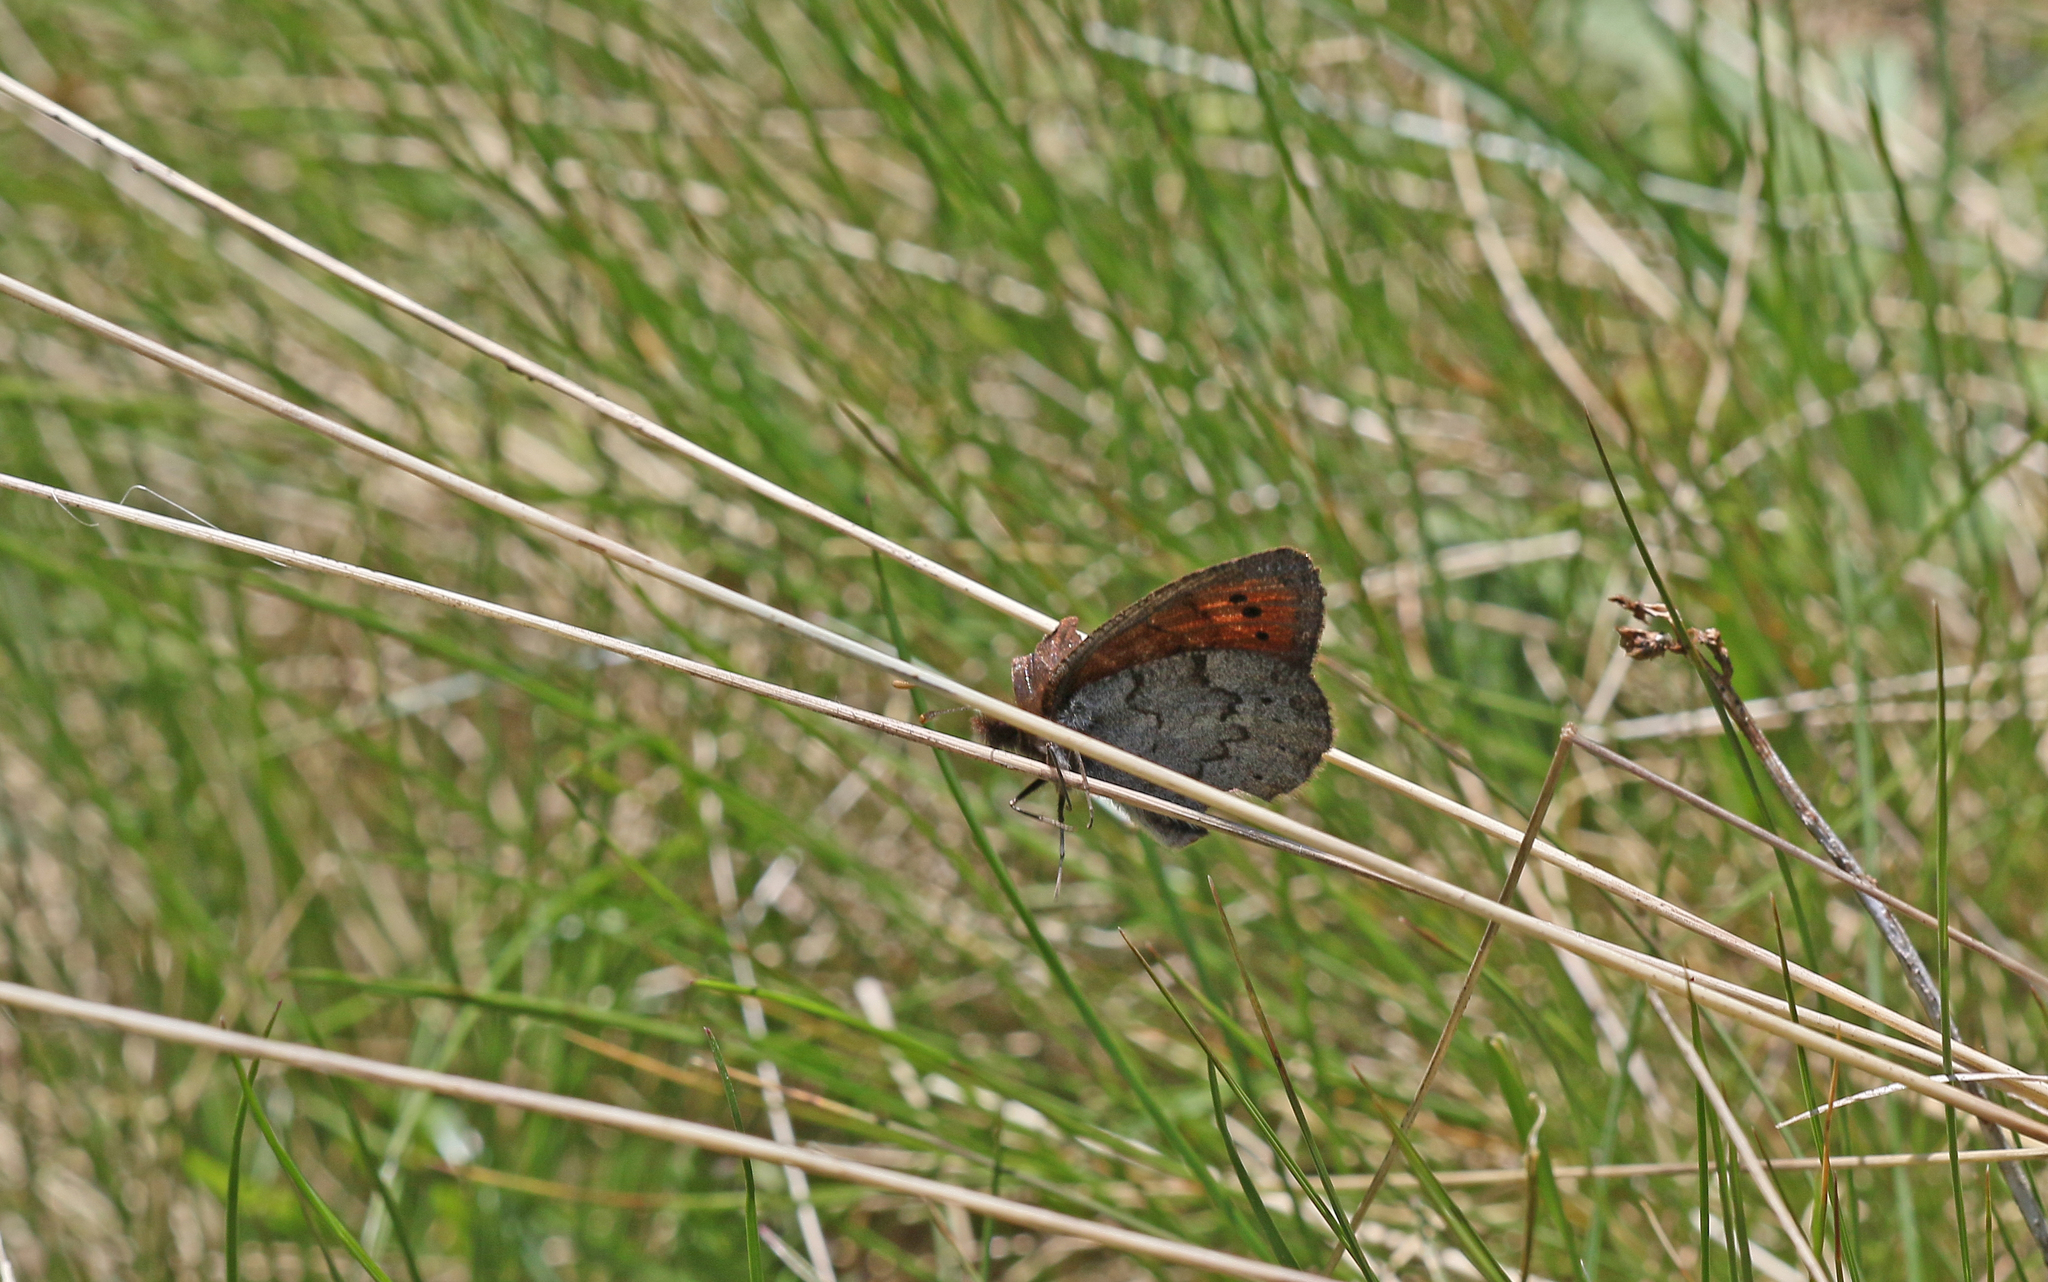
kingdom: Animalia
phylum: Arthropoda
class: Insecta
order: Lepidoptera
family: Nymphalidae
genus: Erebia
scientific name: Erebia pandrose
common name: Dewy ringlet
